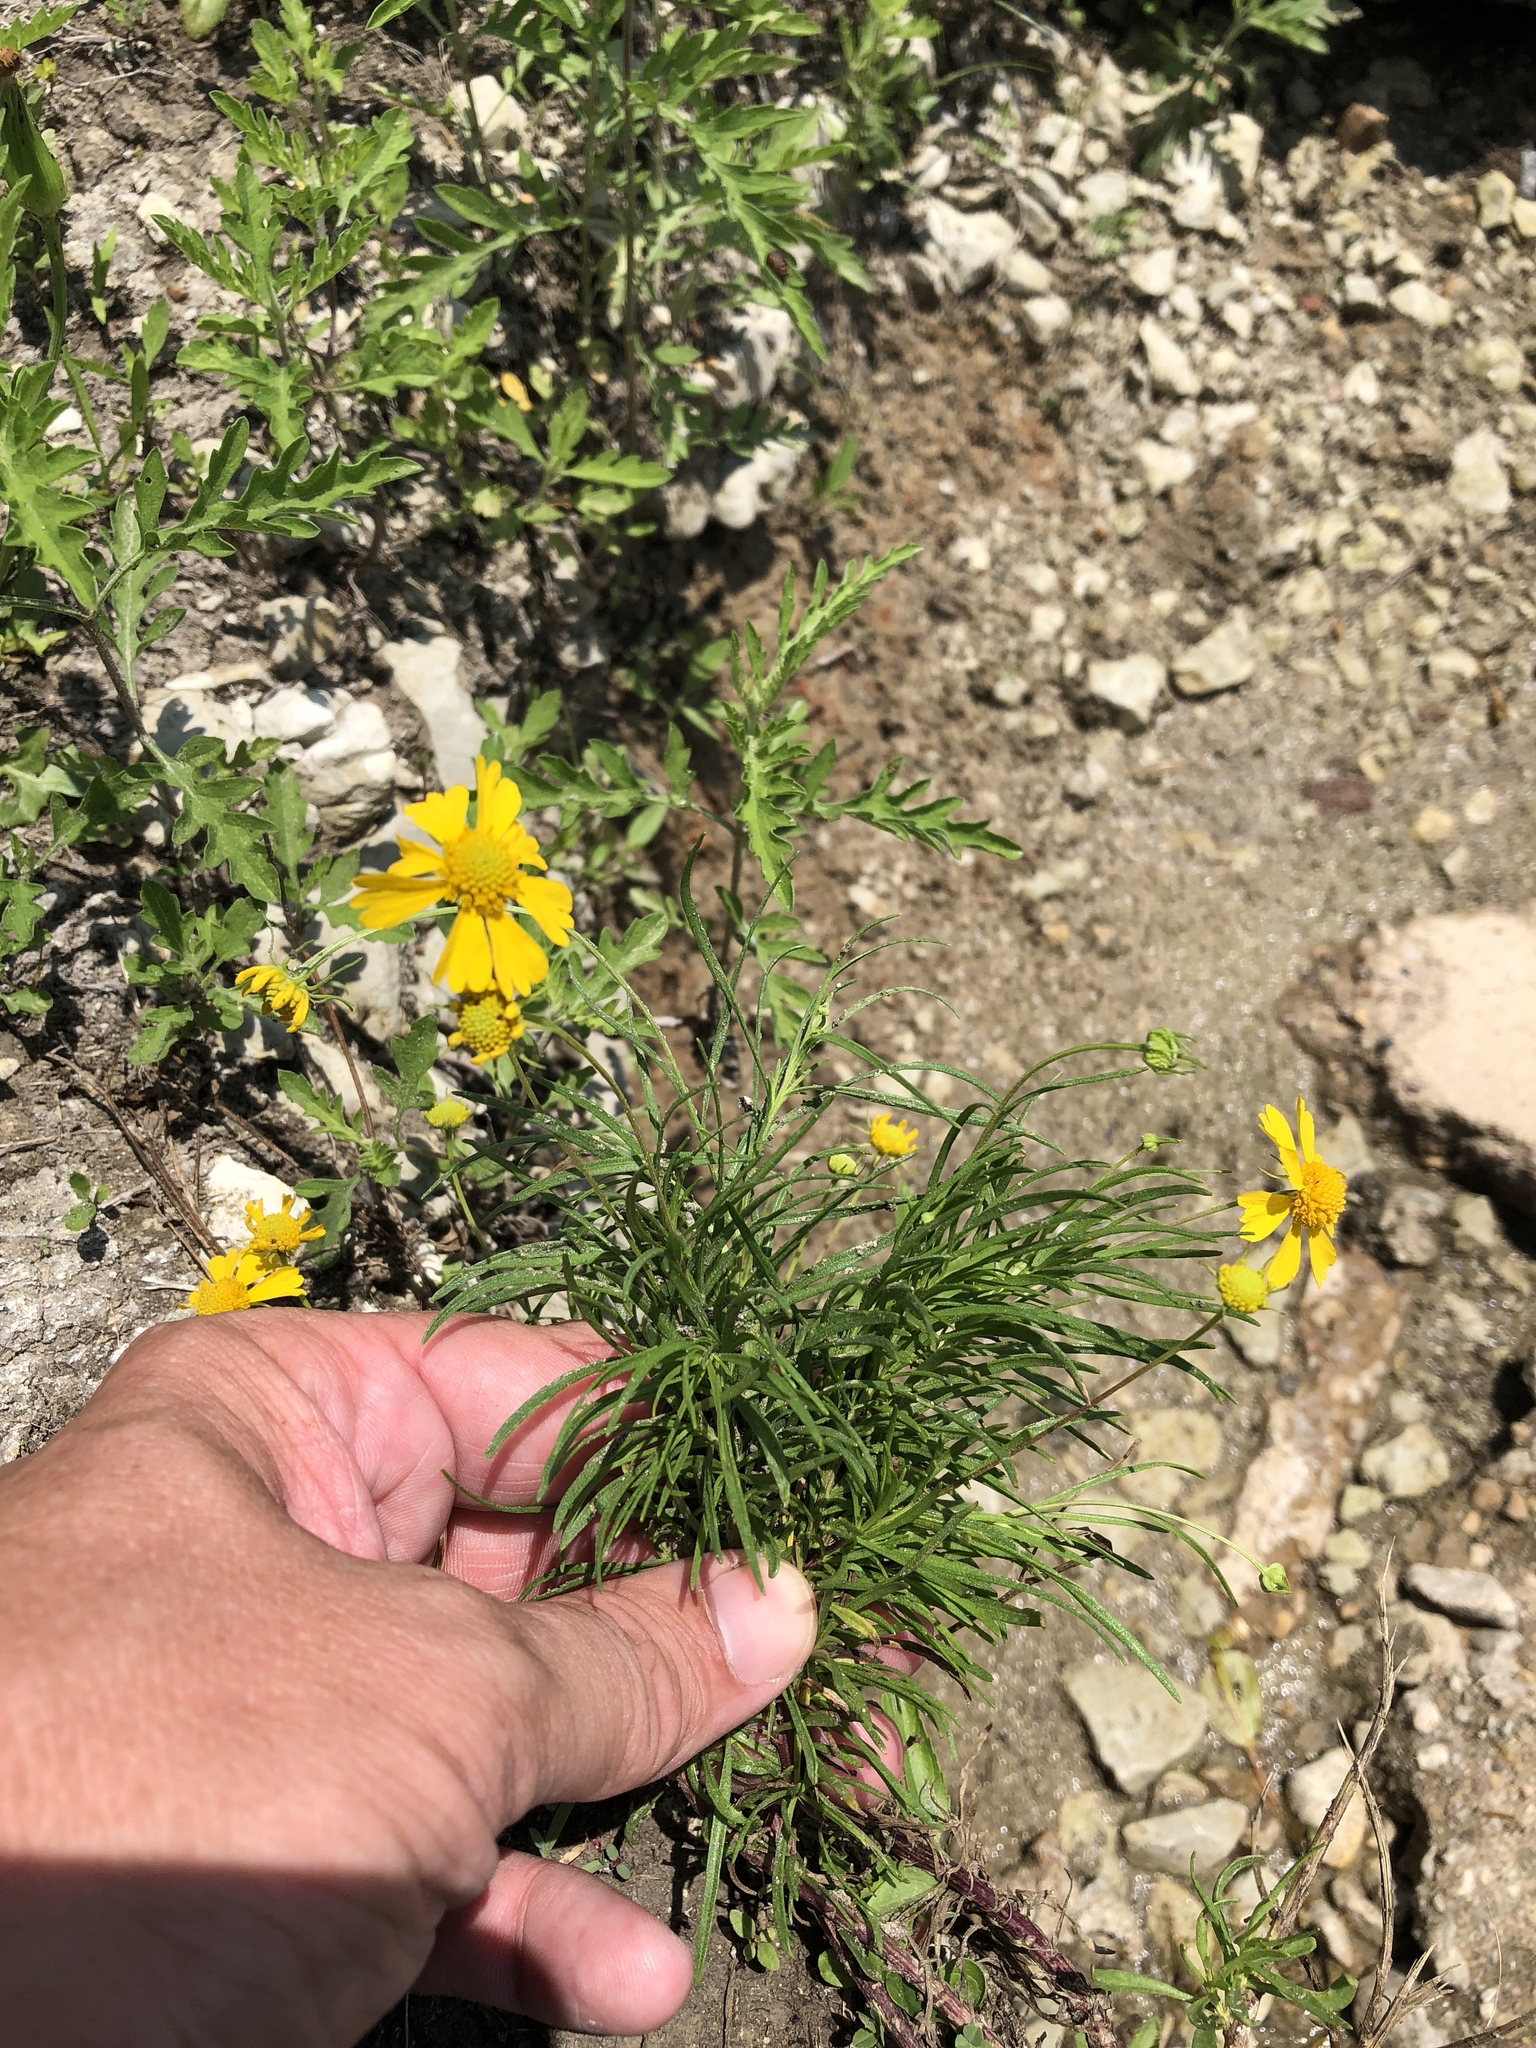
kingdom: Plantae
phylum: Tracheophyta
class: Magnoliopsida
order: Asterales
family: Asteraceae
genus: Helenium
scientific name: Helenium amarum
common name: Bitter sneezeweed
